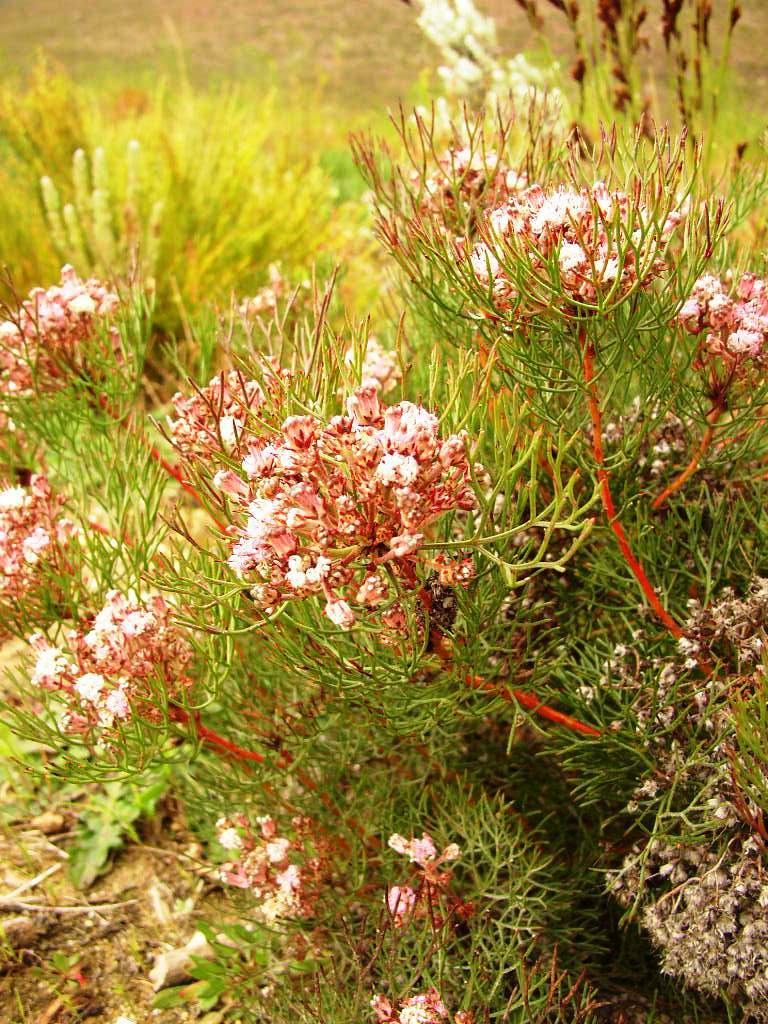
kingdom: Plantae
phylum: Tracheophyta
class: Magnoliopsida
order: Proteales
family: Proteaceae
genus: Serruria
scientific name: Serruria fasciflora
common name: Common pin spiderhead
